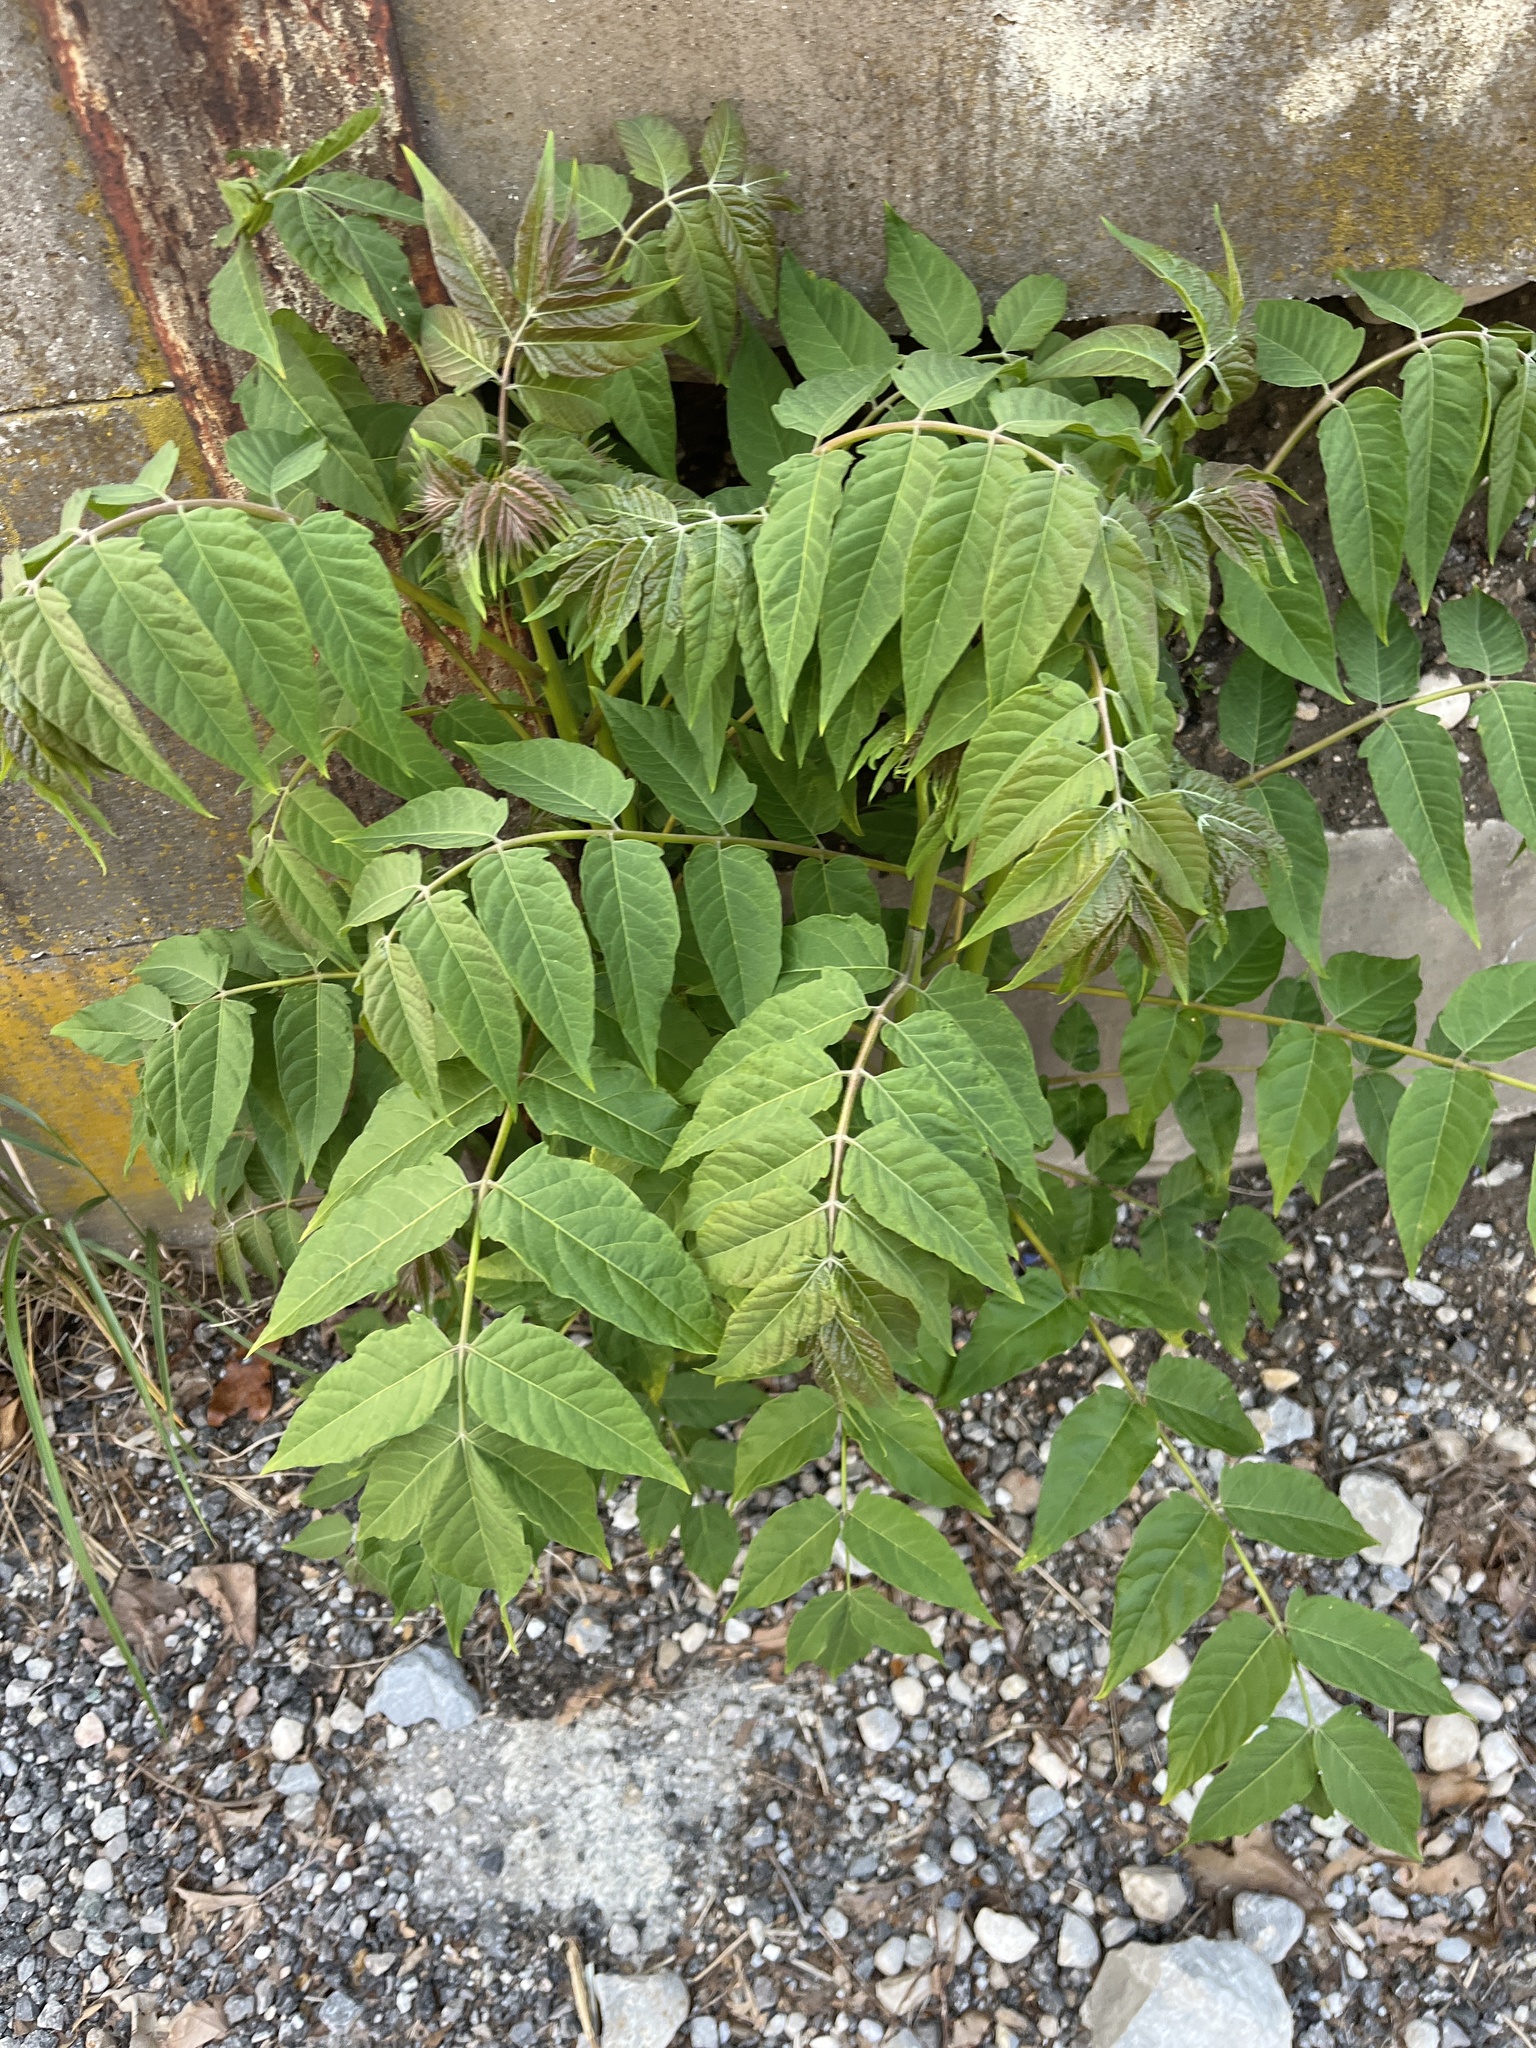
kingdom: Plantae
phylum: Tracheophyta
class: Magnoliopsida
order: Sapindales
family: Simaroubaceae
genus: Ailanthus
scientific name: Ailanthus altissima
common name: Tree-of-heaven
